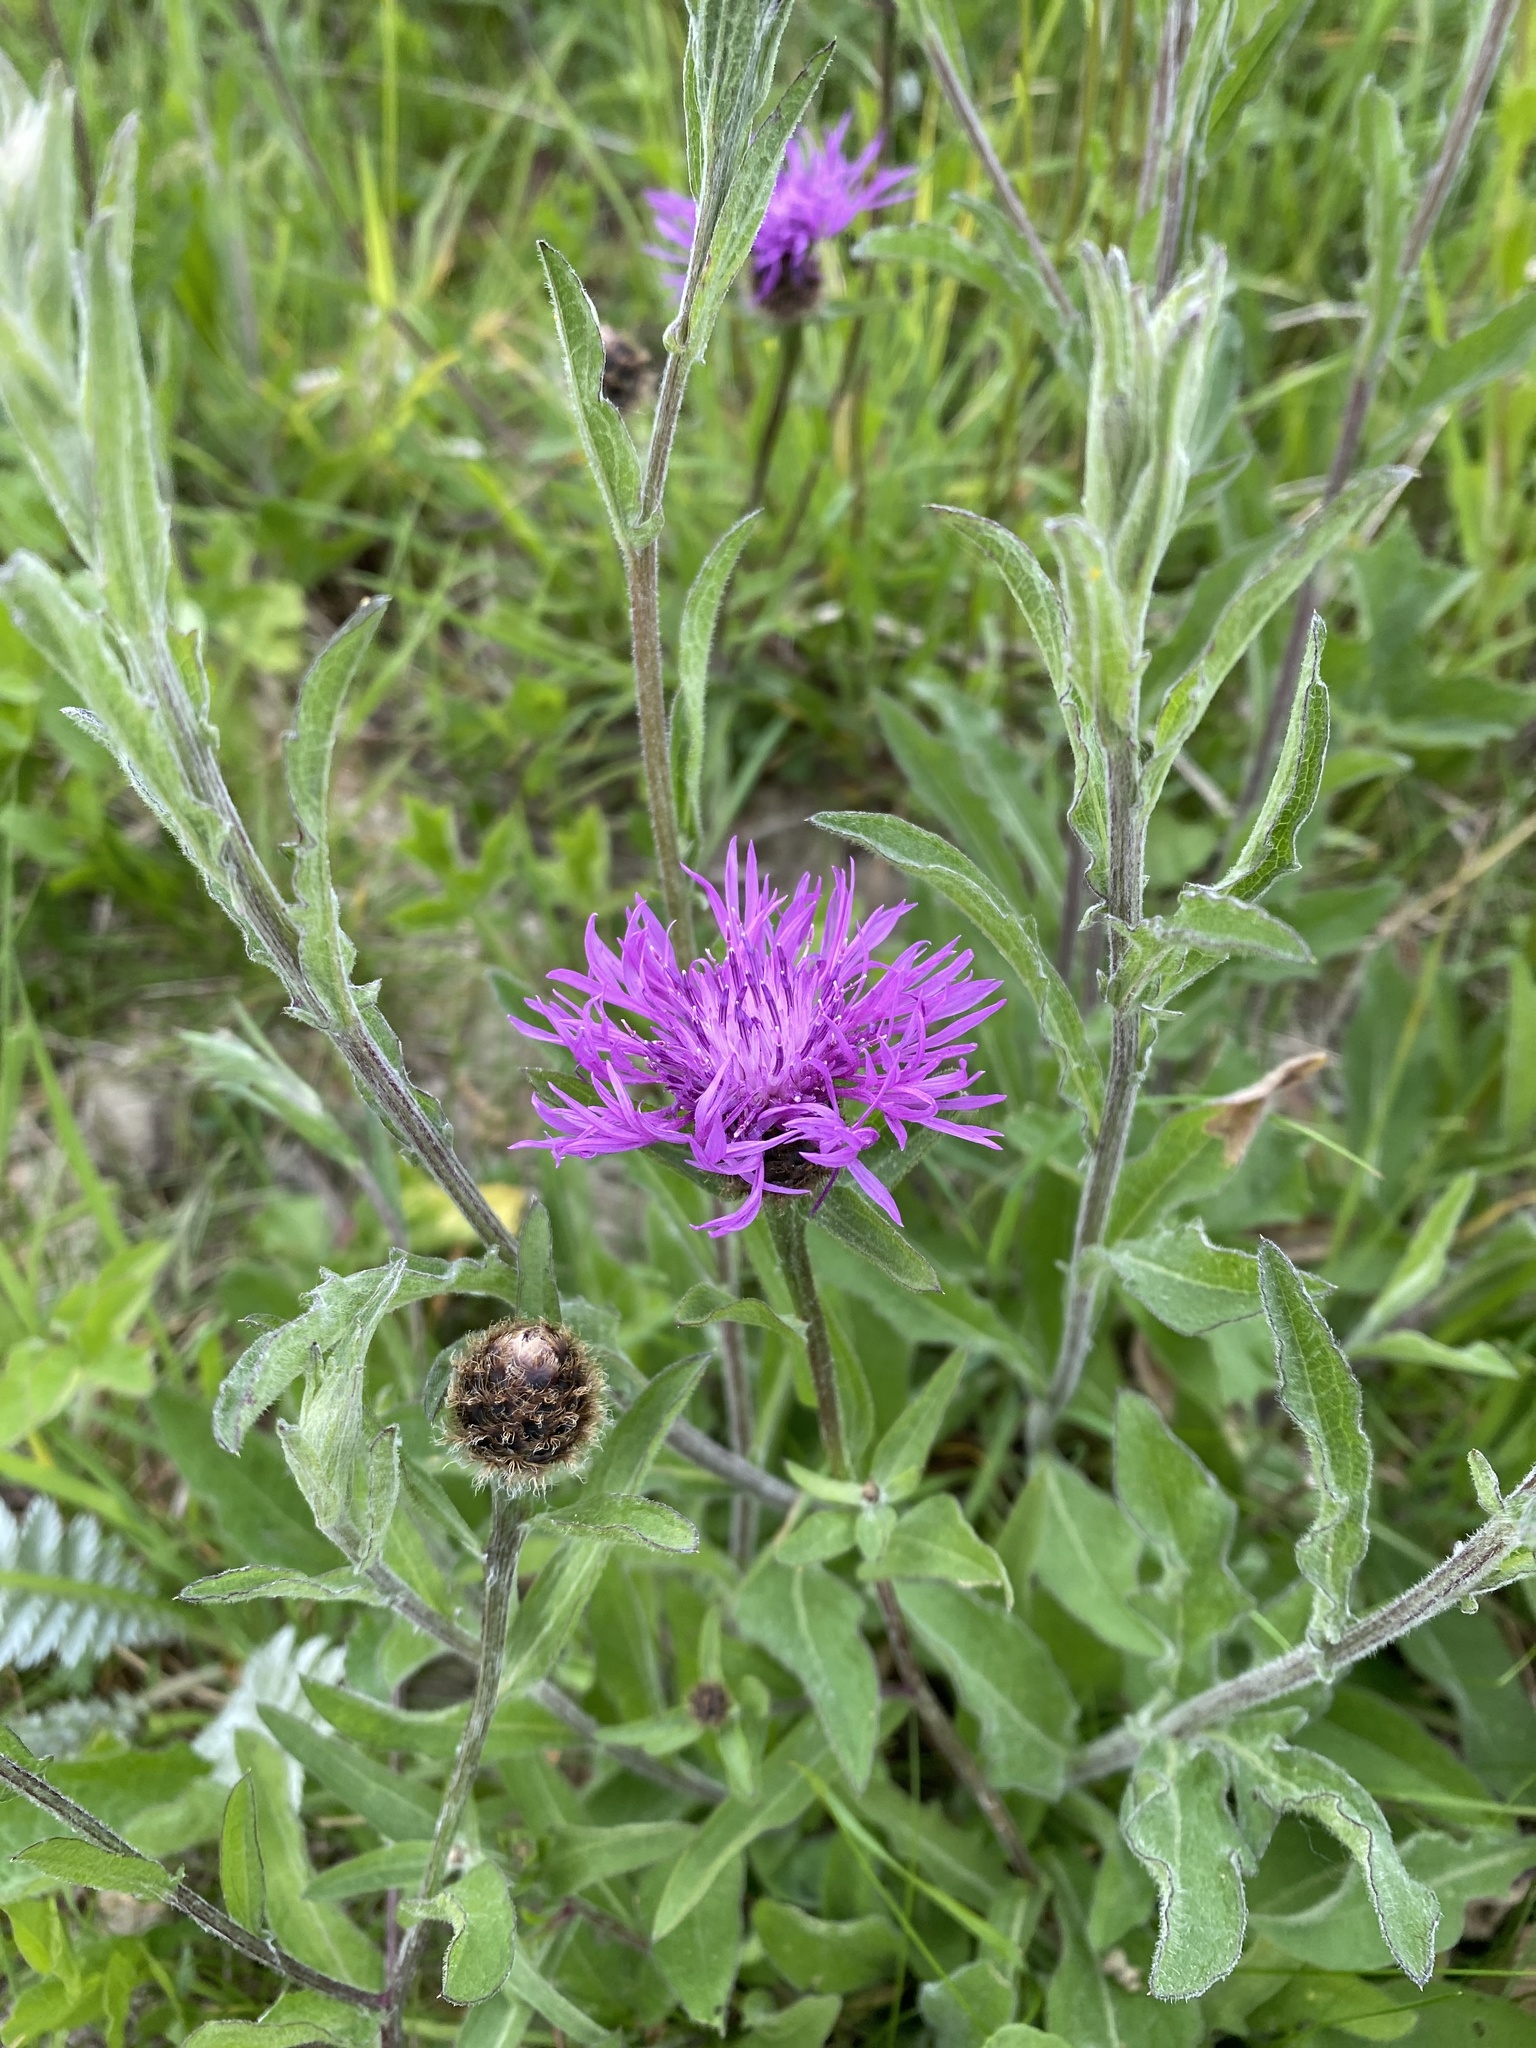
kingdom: Plantae
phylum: Tracheophyta
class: Magnoliopsida
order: Asterales
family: Asteraceae
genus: Centaurea
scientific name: Centaurea nigra
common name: Lesser knapweed
